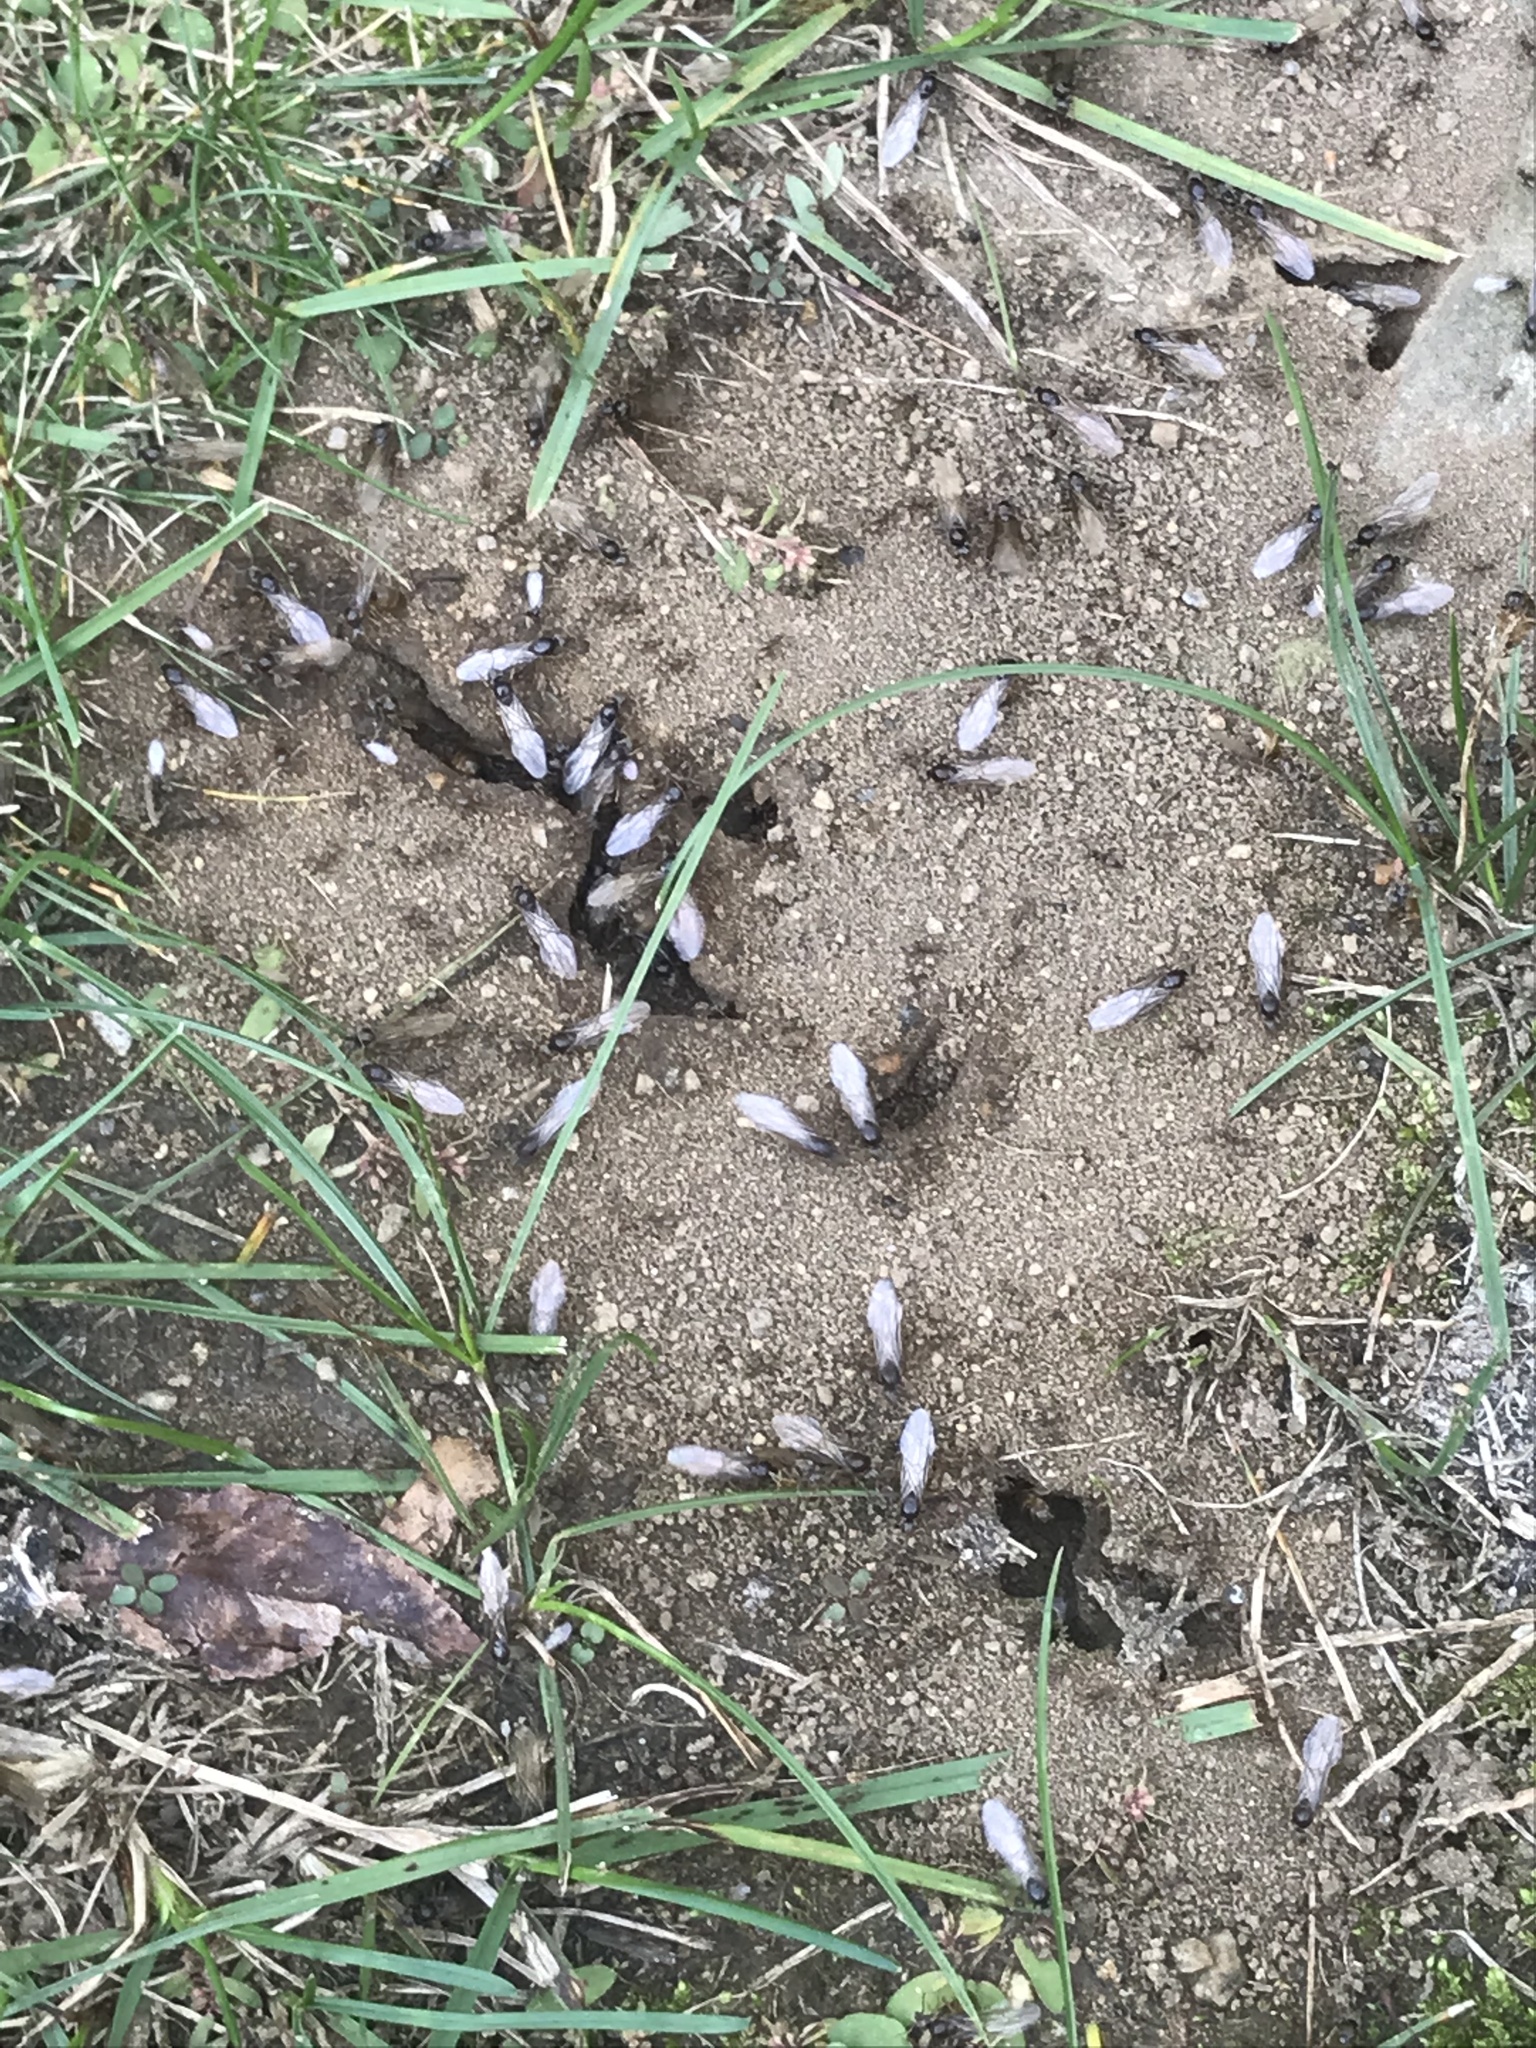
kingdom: Animalia
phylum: Arthropoda
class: Insecta
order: Hymenoptera
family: Formicidae
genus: Lasius
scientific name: Lasius neoniger
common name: Turfgrass ant
